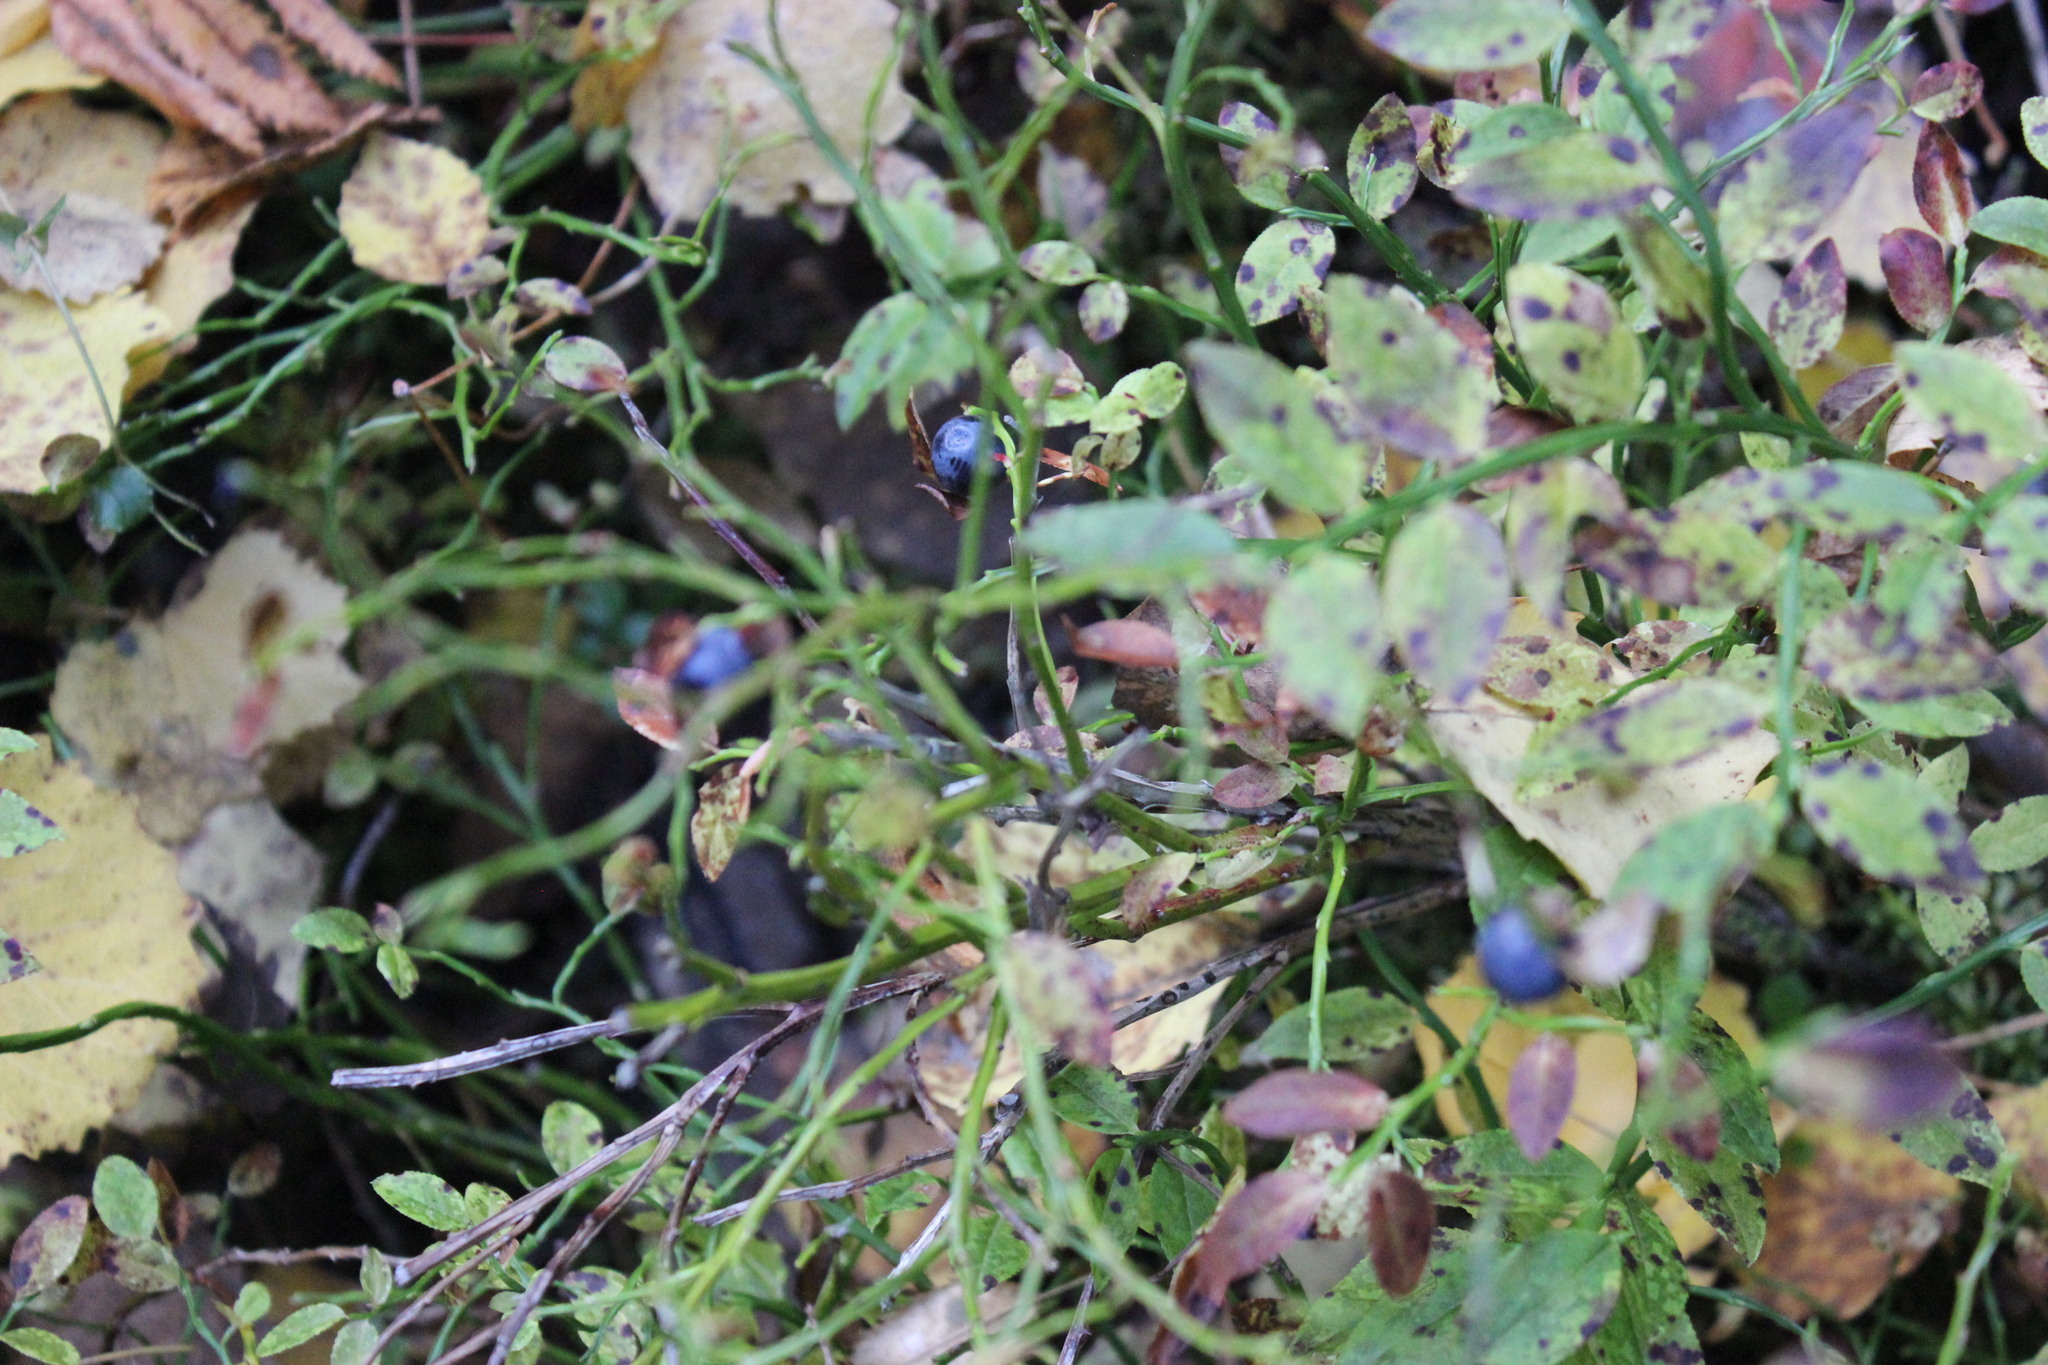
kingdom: Plantae
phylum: Tracheophyta
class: Magnoliopsida
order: Ericales
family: Ericaceae
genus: Vaccinium
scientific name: Vaccinium myrtillus
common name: Bilberry
